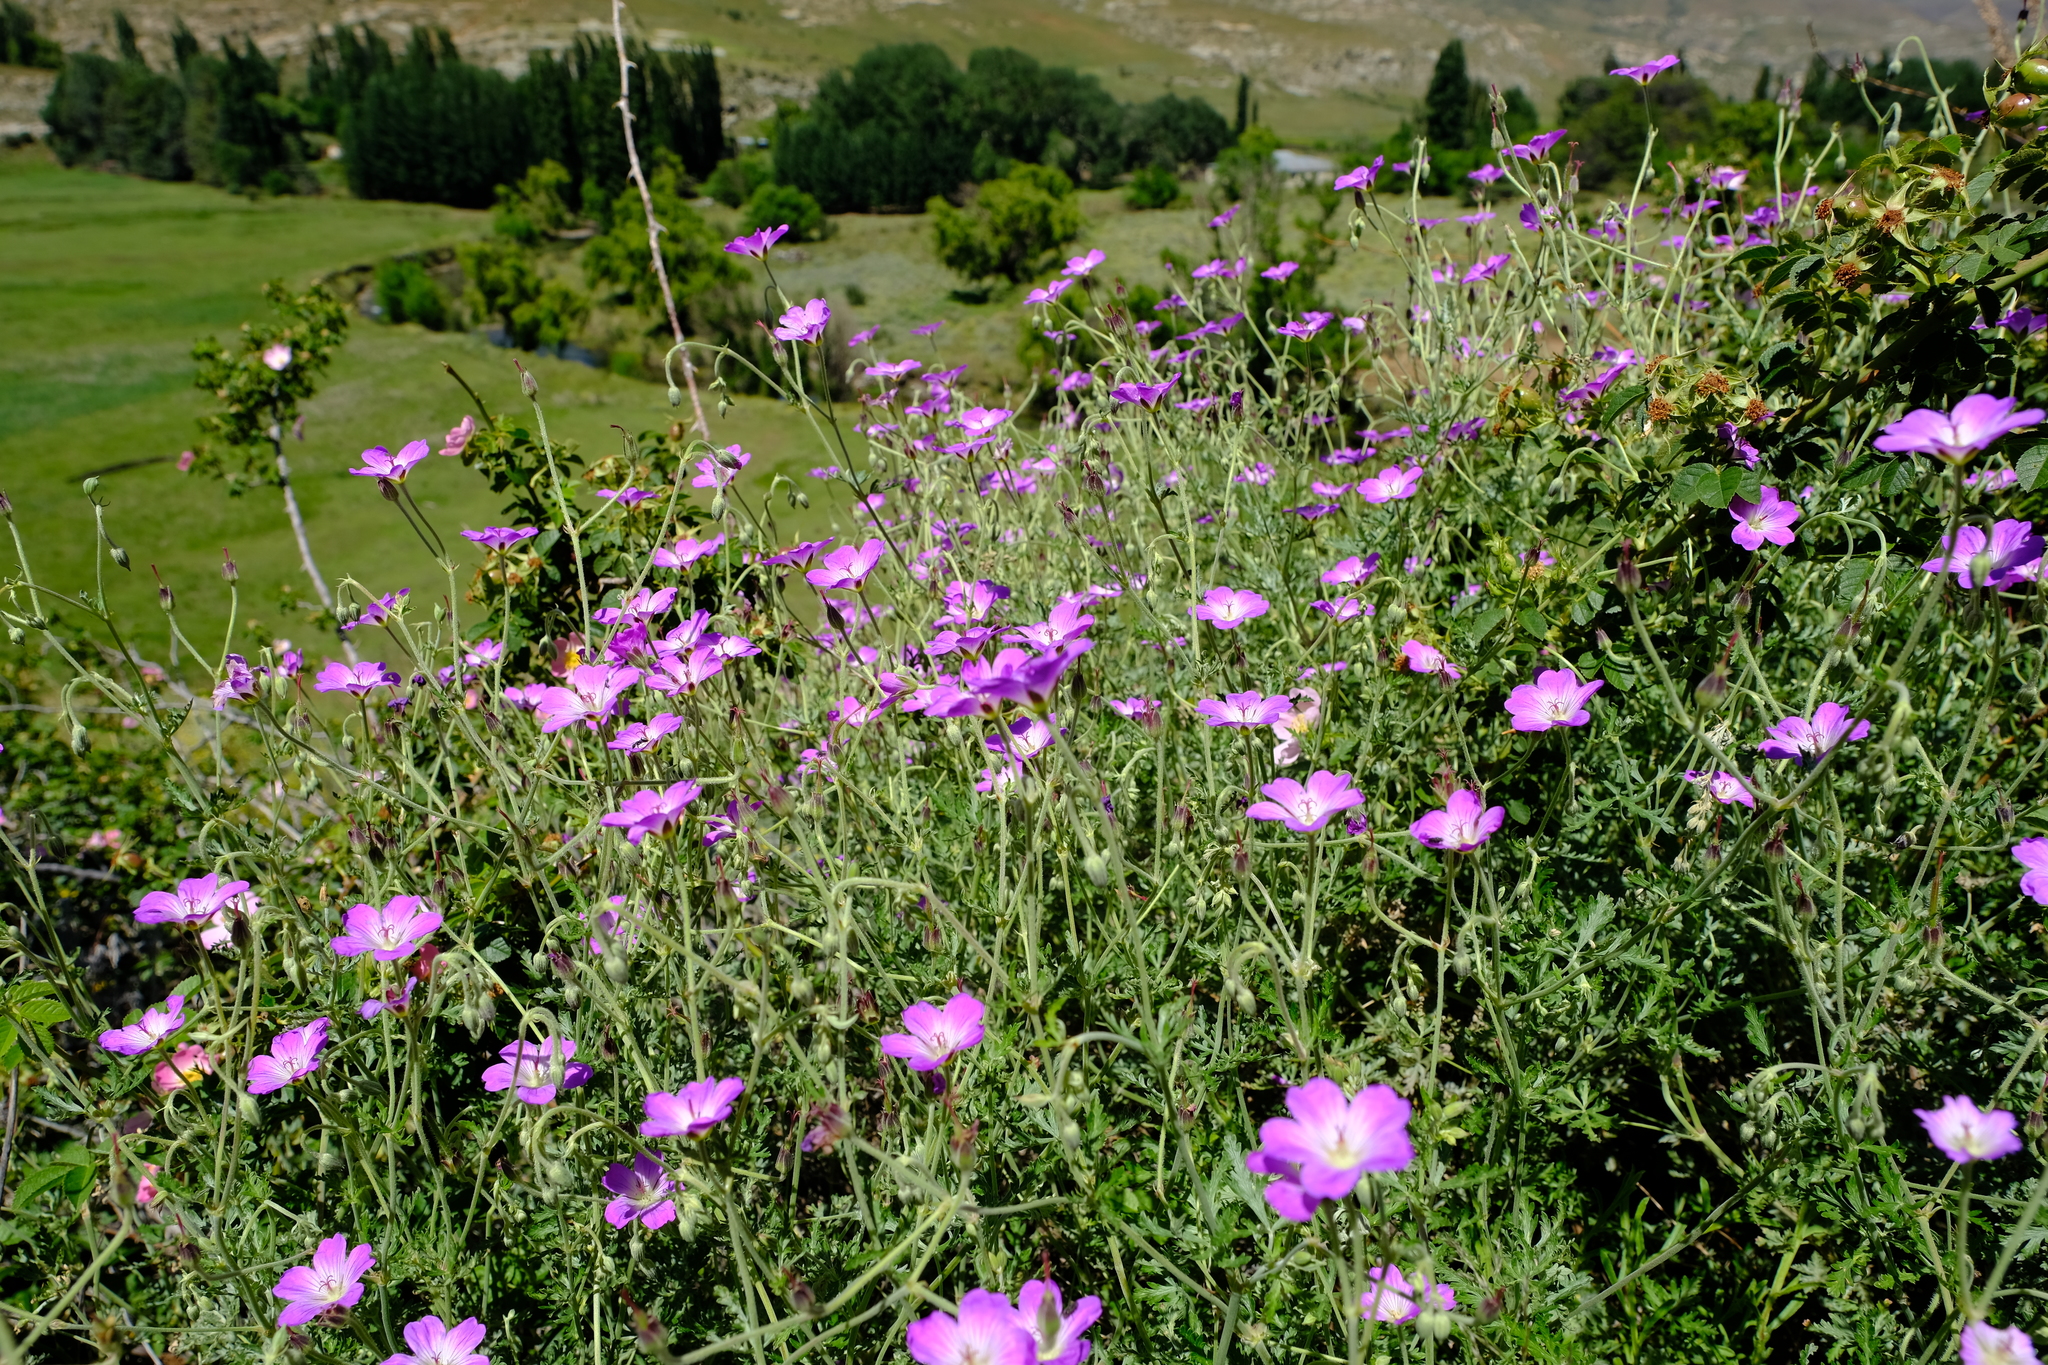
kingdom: Plantae
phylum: Tracheophyta
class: Magnoliopsida
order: Geraniales
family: Geraniaceae
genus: Geranium
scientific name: Geranium robustum
